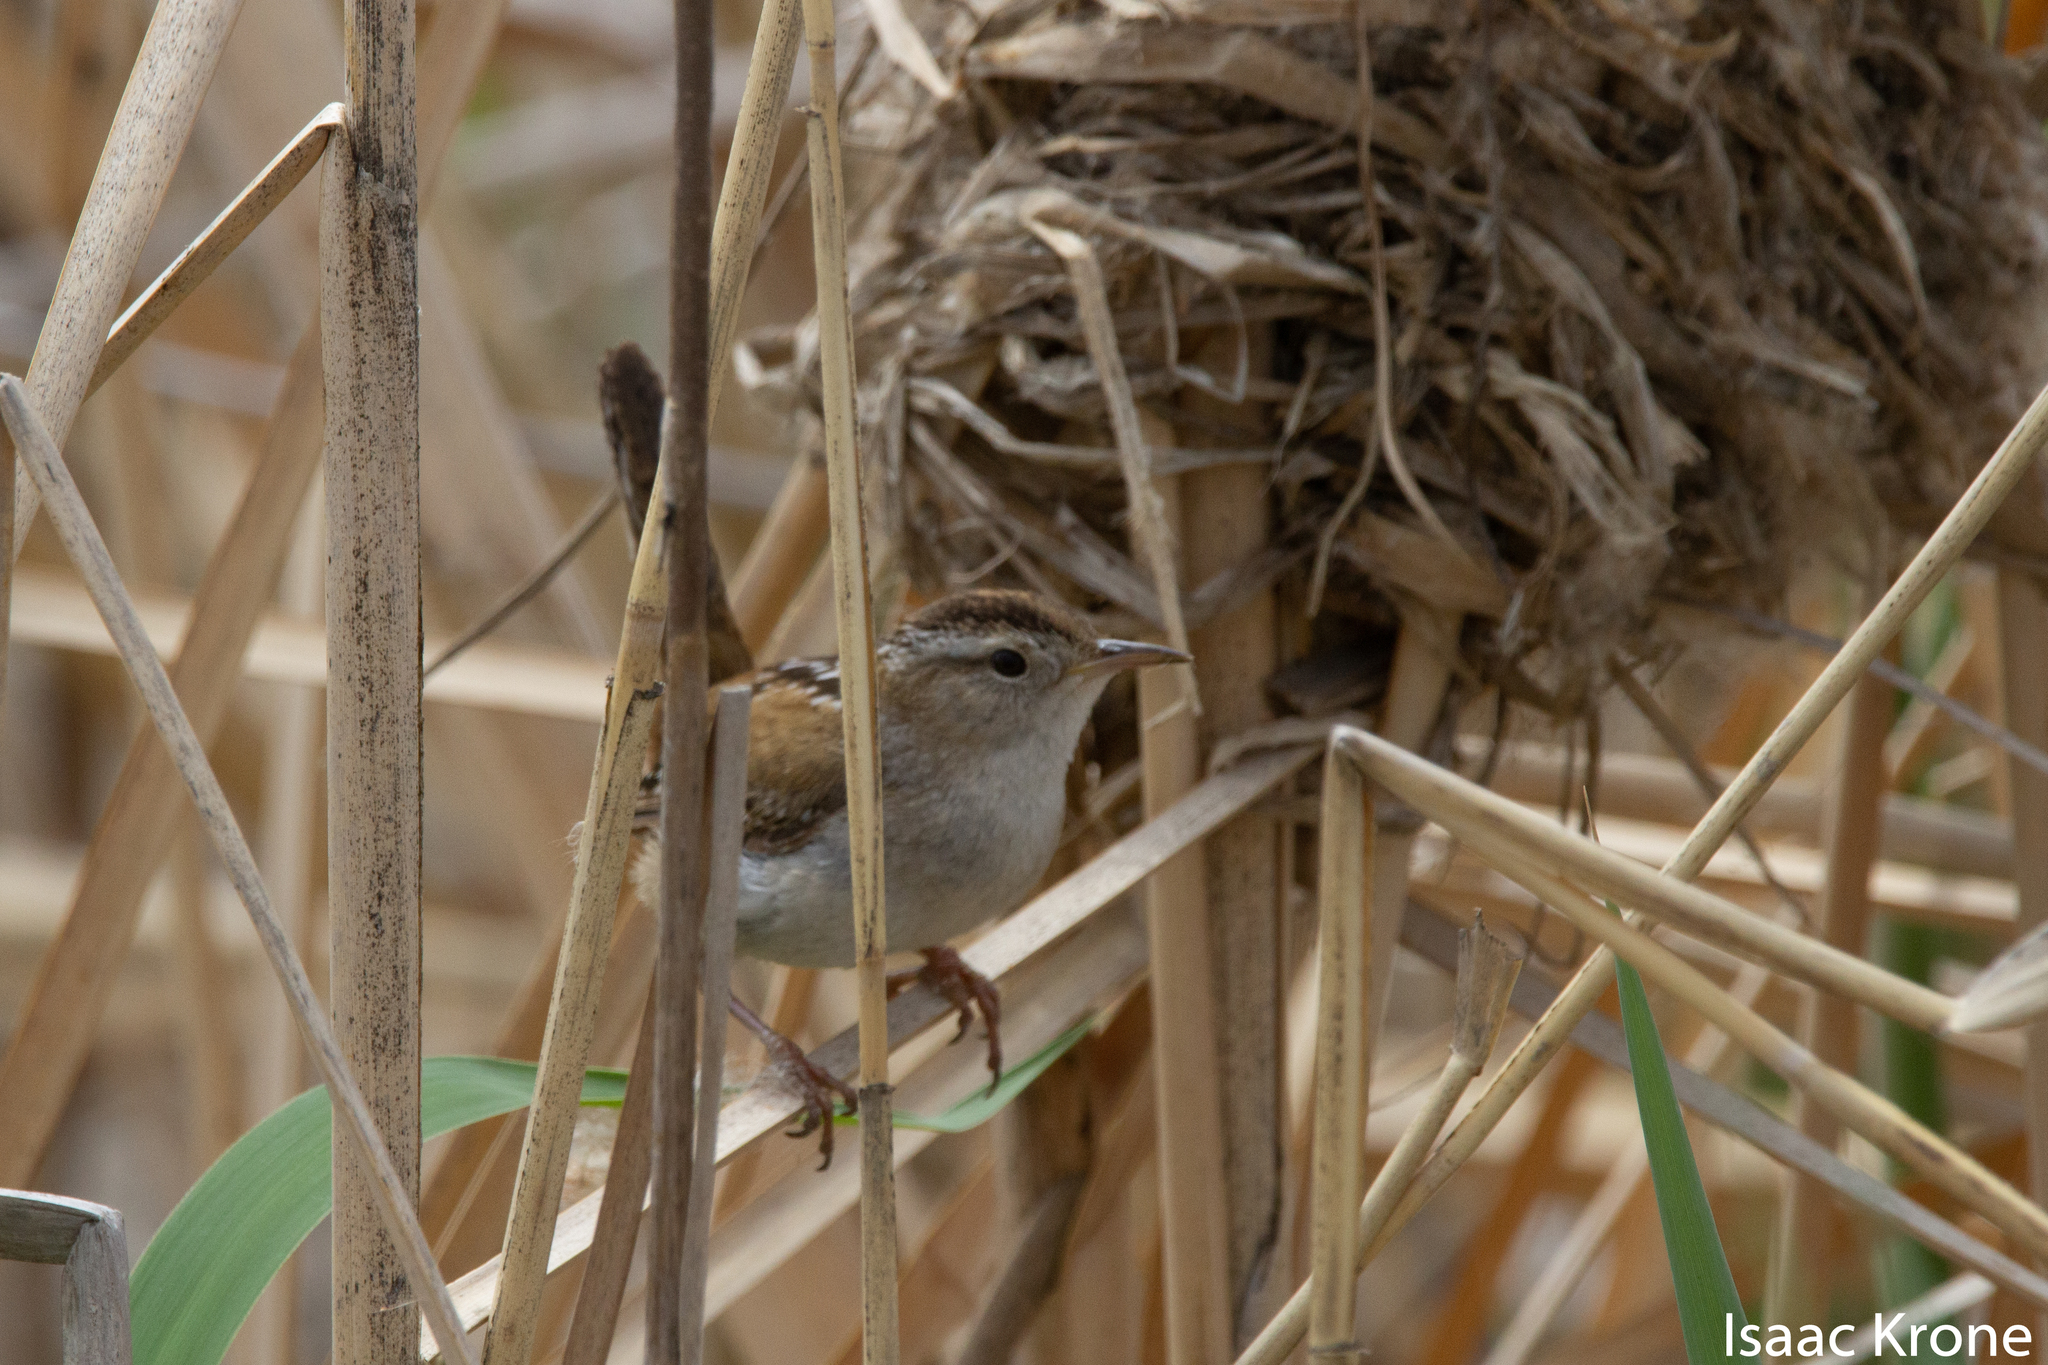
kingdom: Animalia
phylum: Chordata
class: Aves
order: Passeriformes
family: Troglodytidae
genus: Cistothorus
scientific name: Cistothorus palustris
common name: Marsh wren
